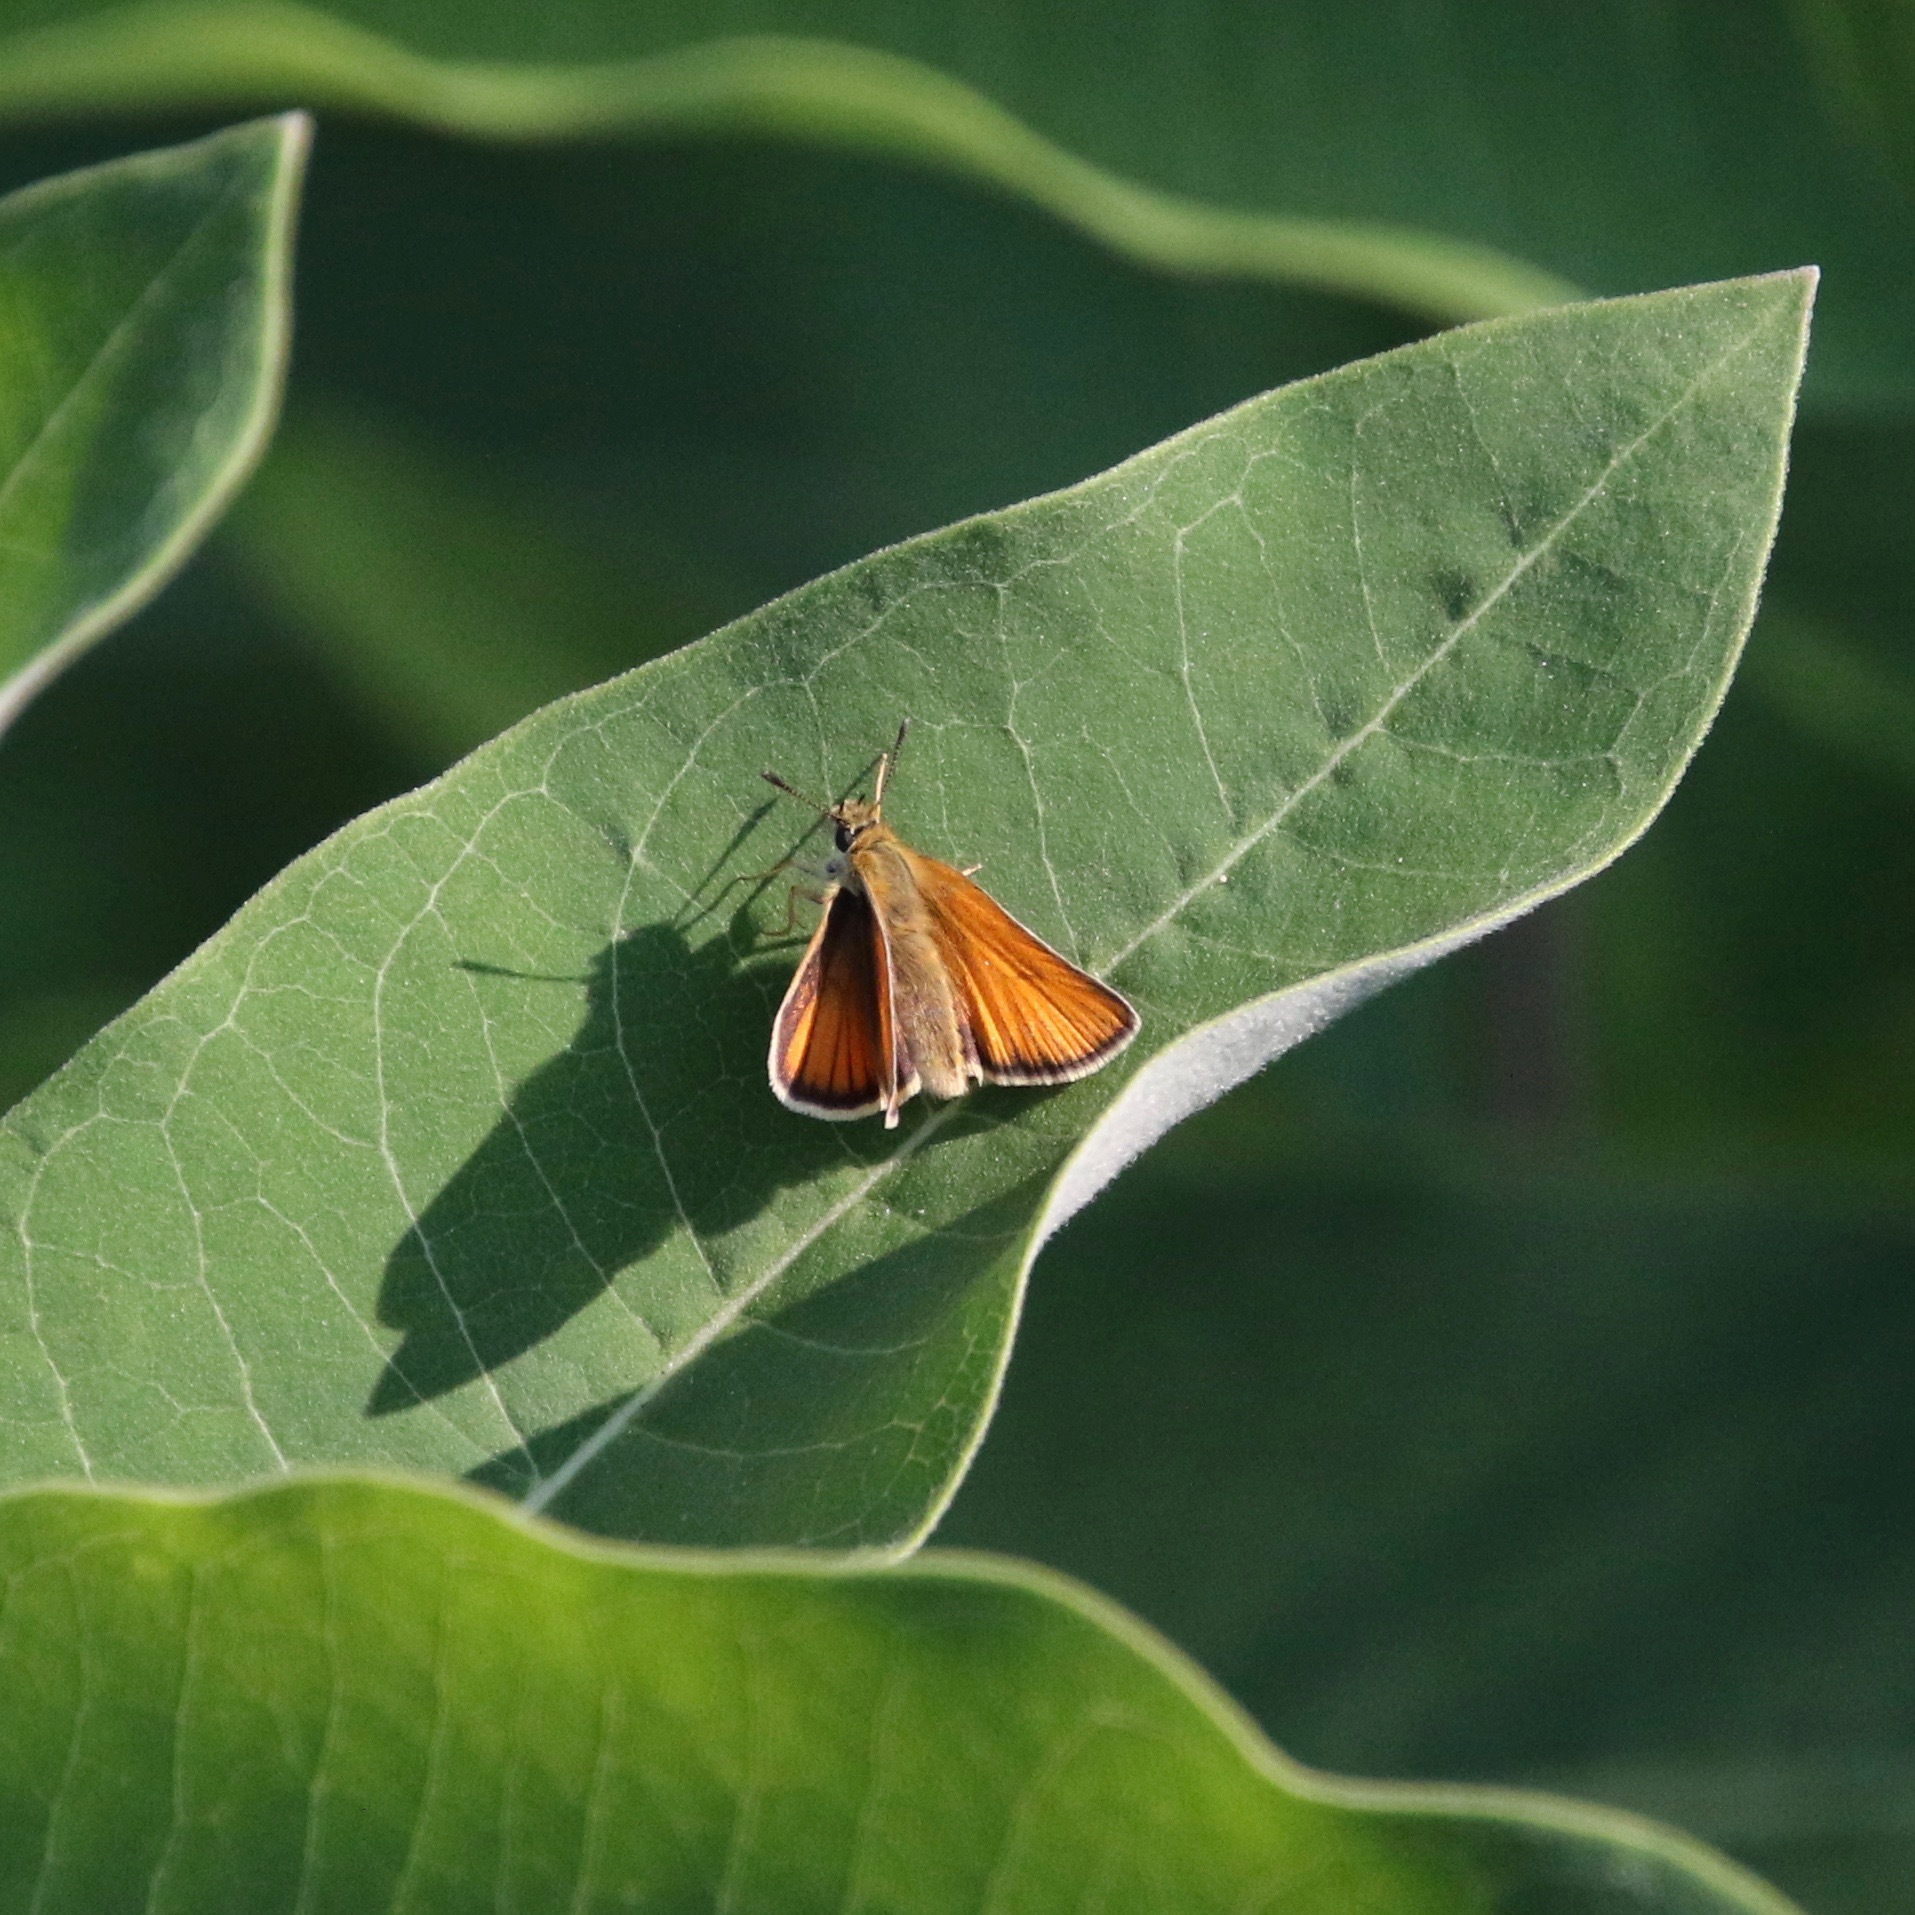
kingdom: Animalia
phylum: Arthropoda
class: Insecta
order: Lepidoptera
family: Hesperiidae
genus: Thymelicus
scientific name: Thymelicus lineola
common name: Essex skipper
